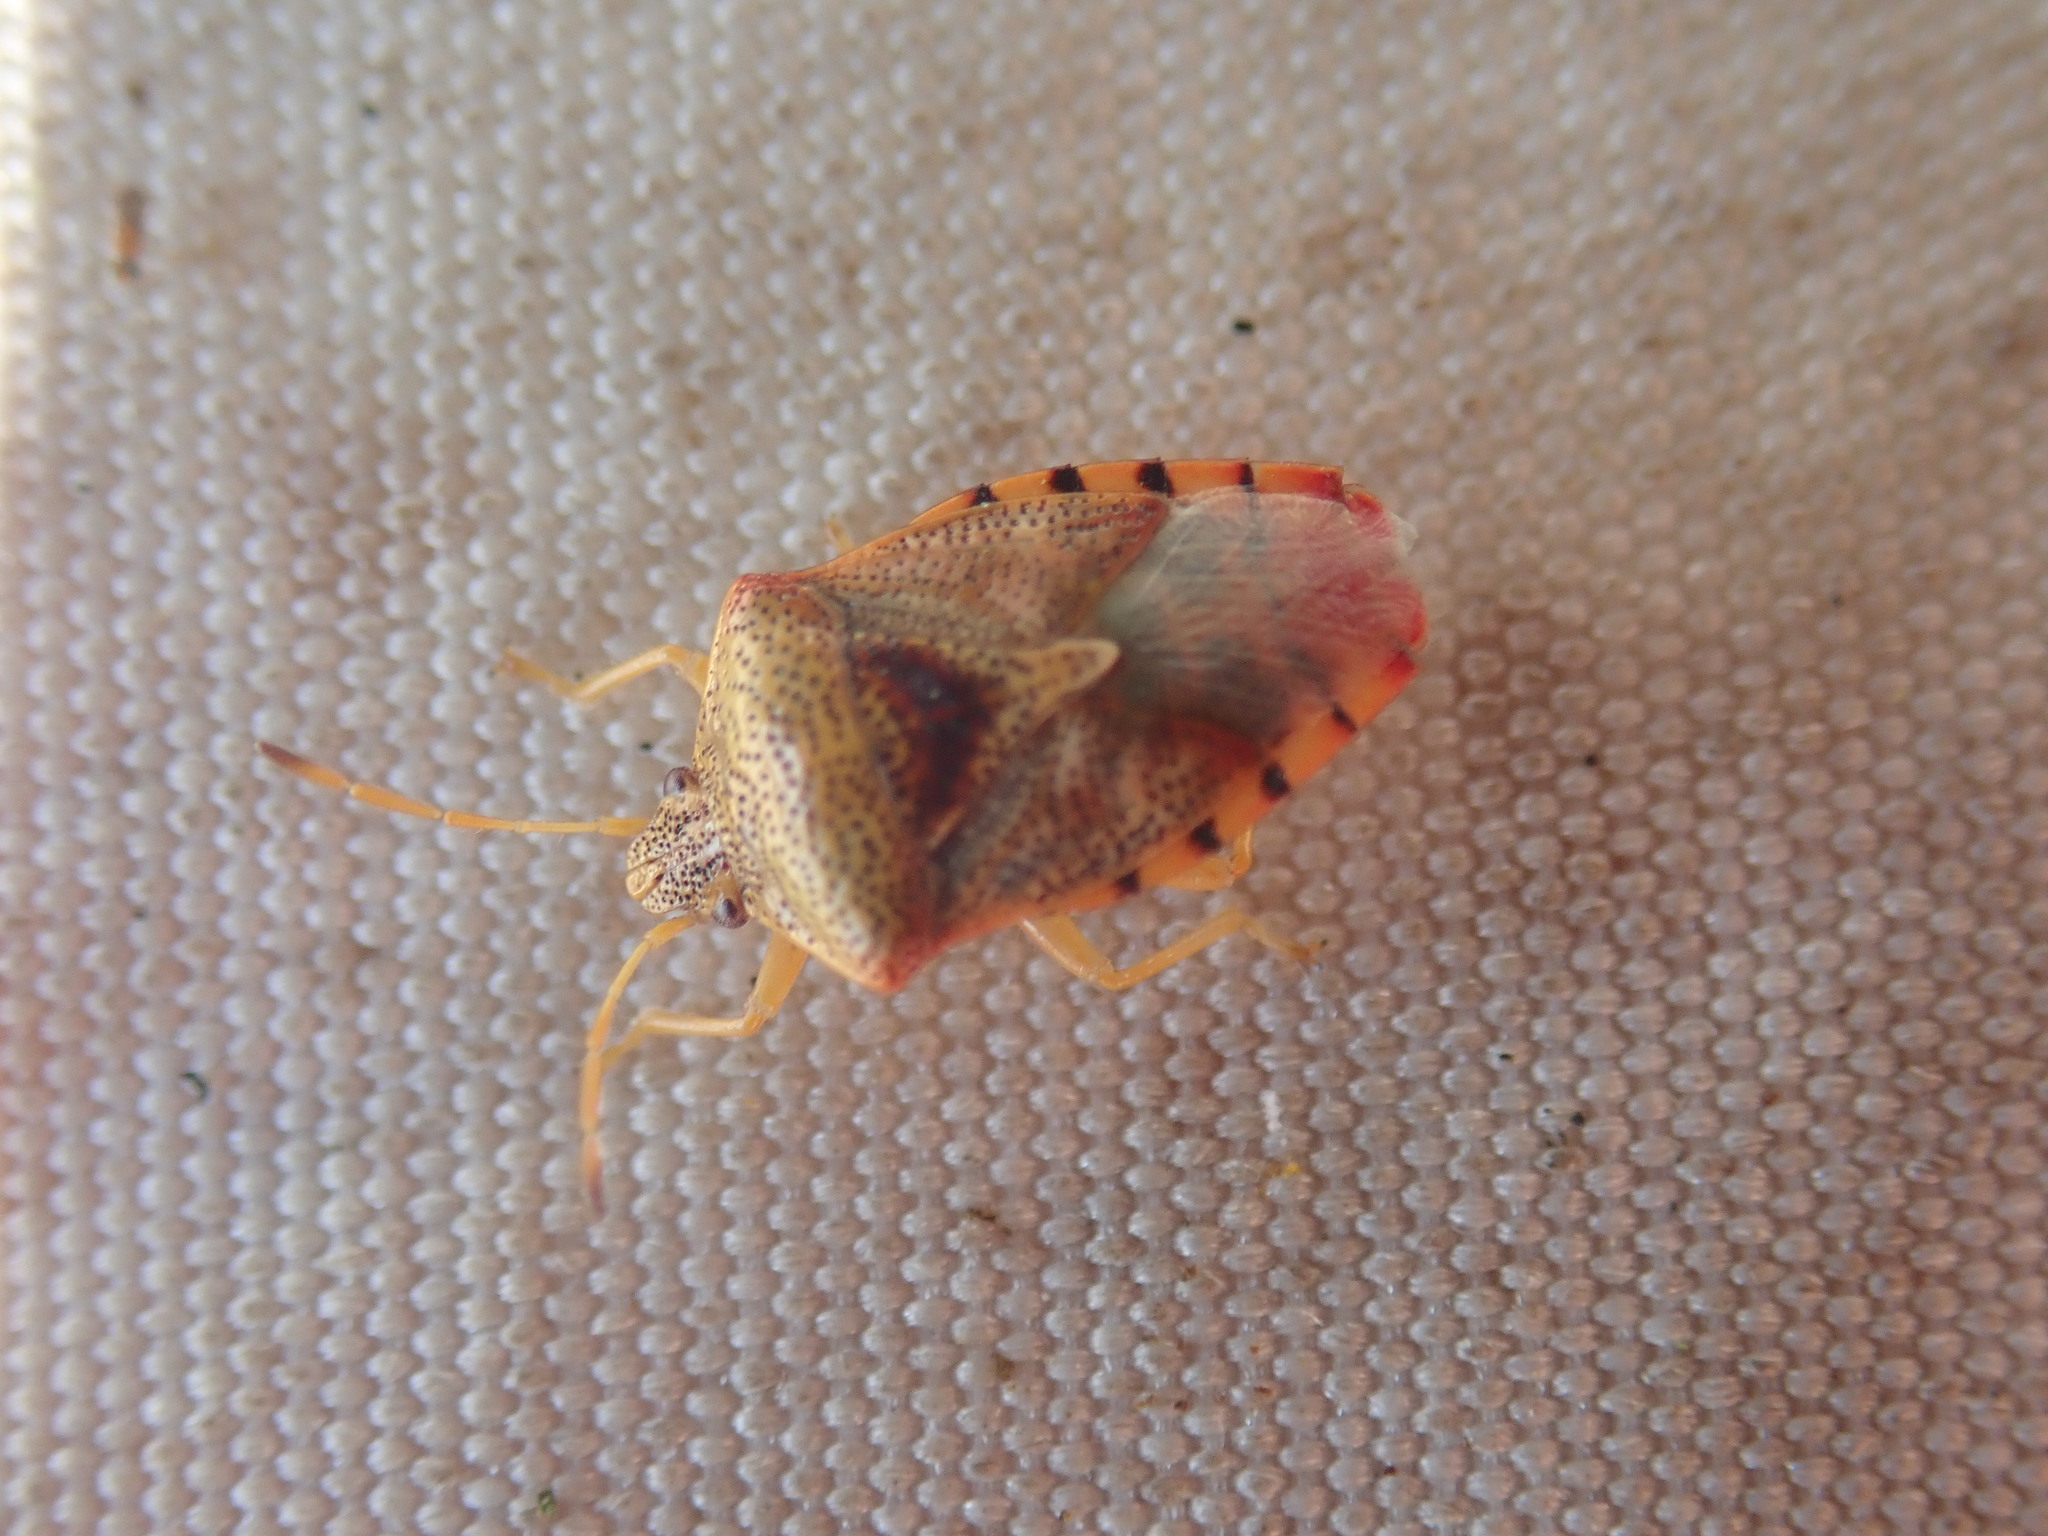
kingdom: Animalia
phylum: Arthropoda
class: Insecta
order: Hemiptera
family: Acanthosomatidae
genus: Elasmucha
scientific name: Elasmucha grisea
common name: Parent bug
